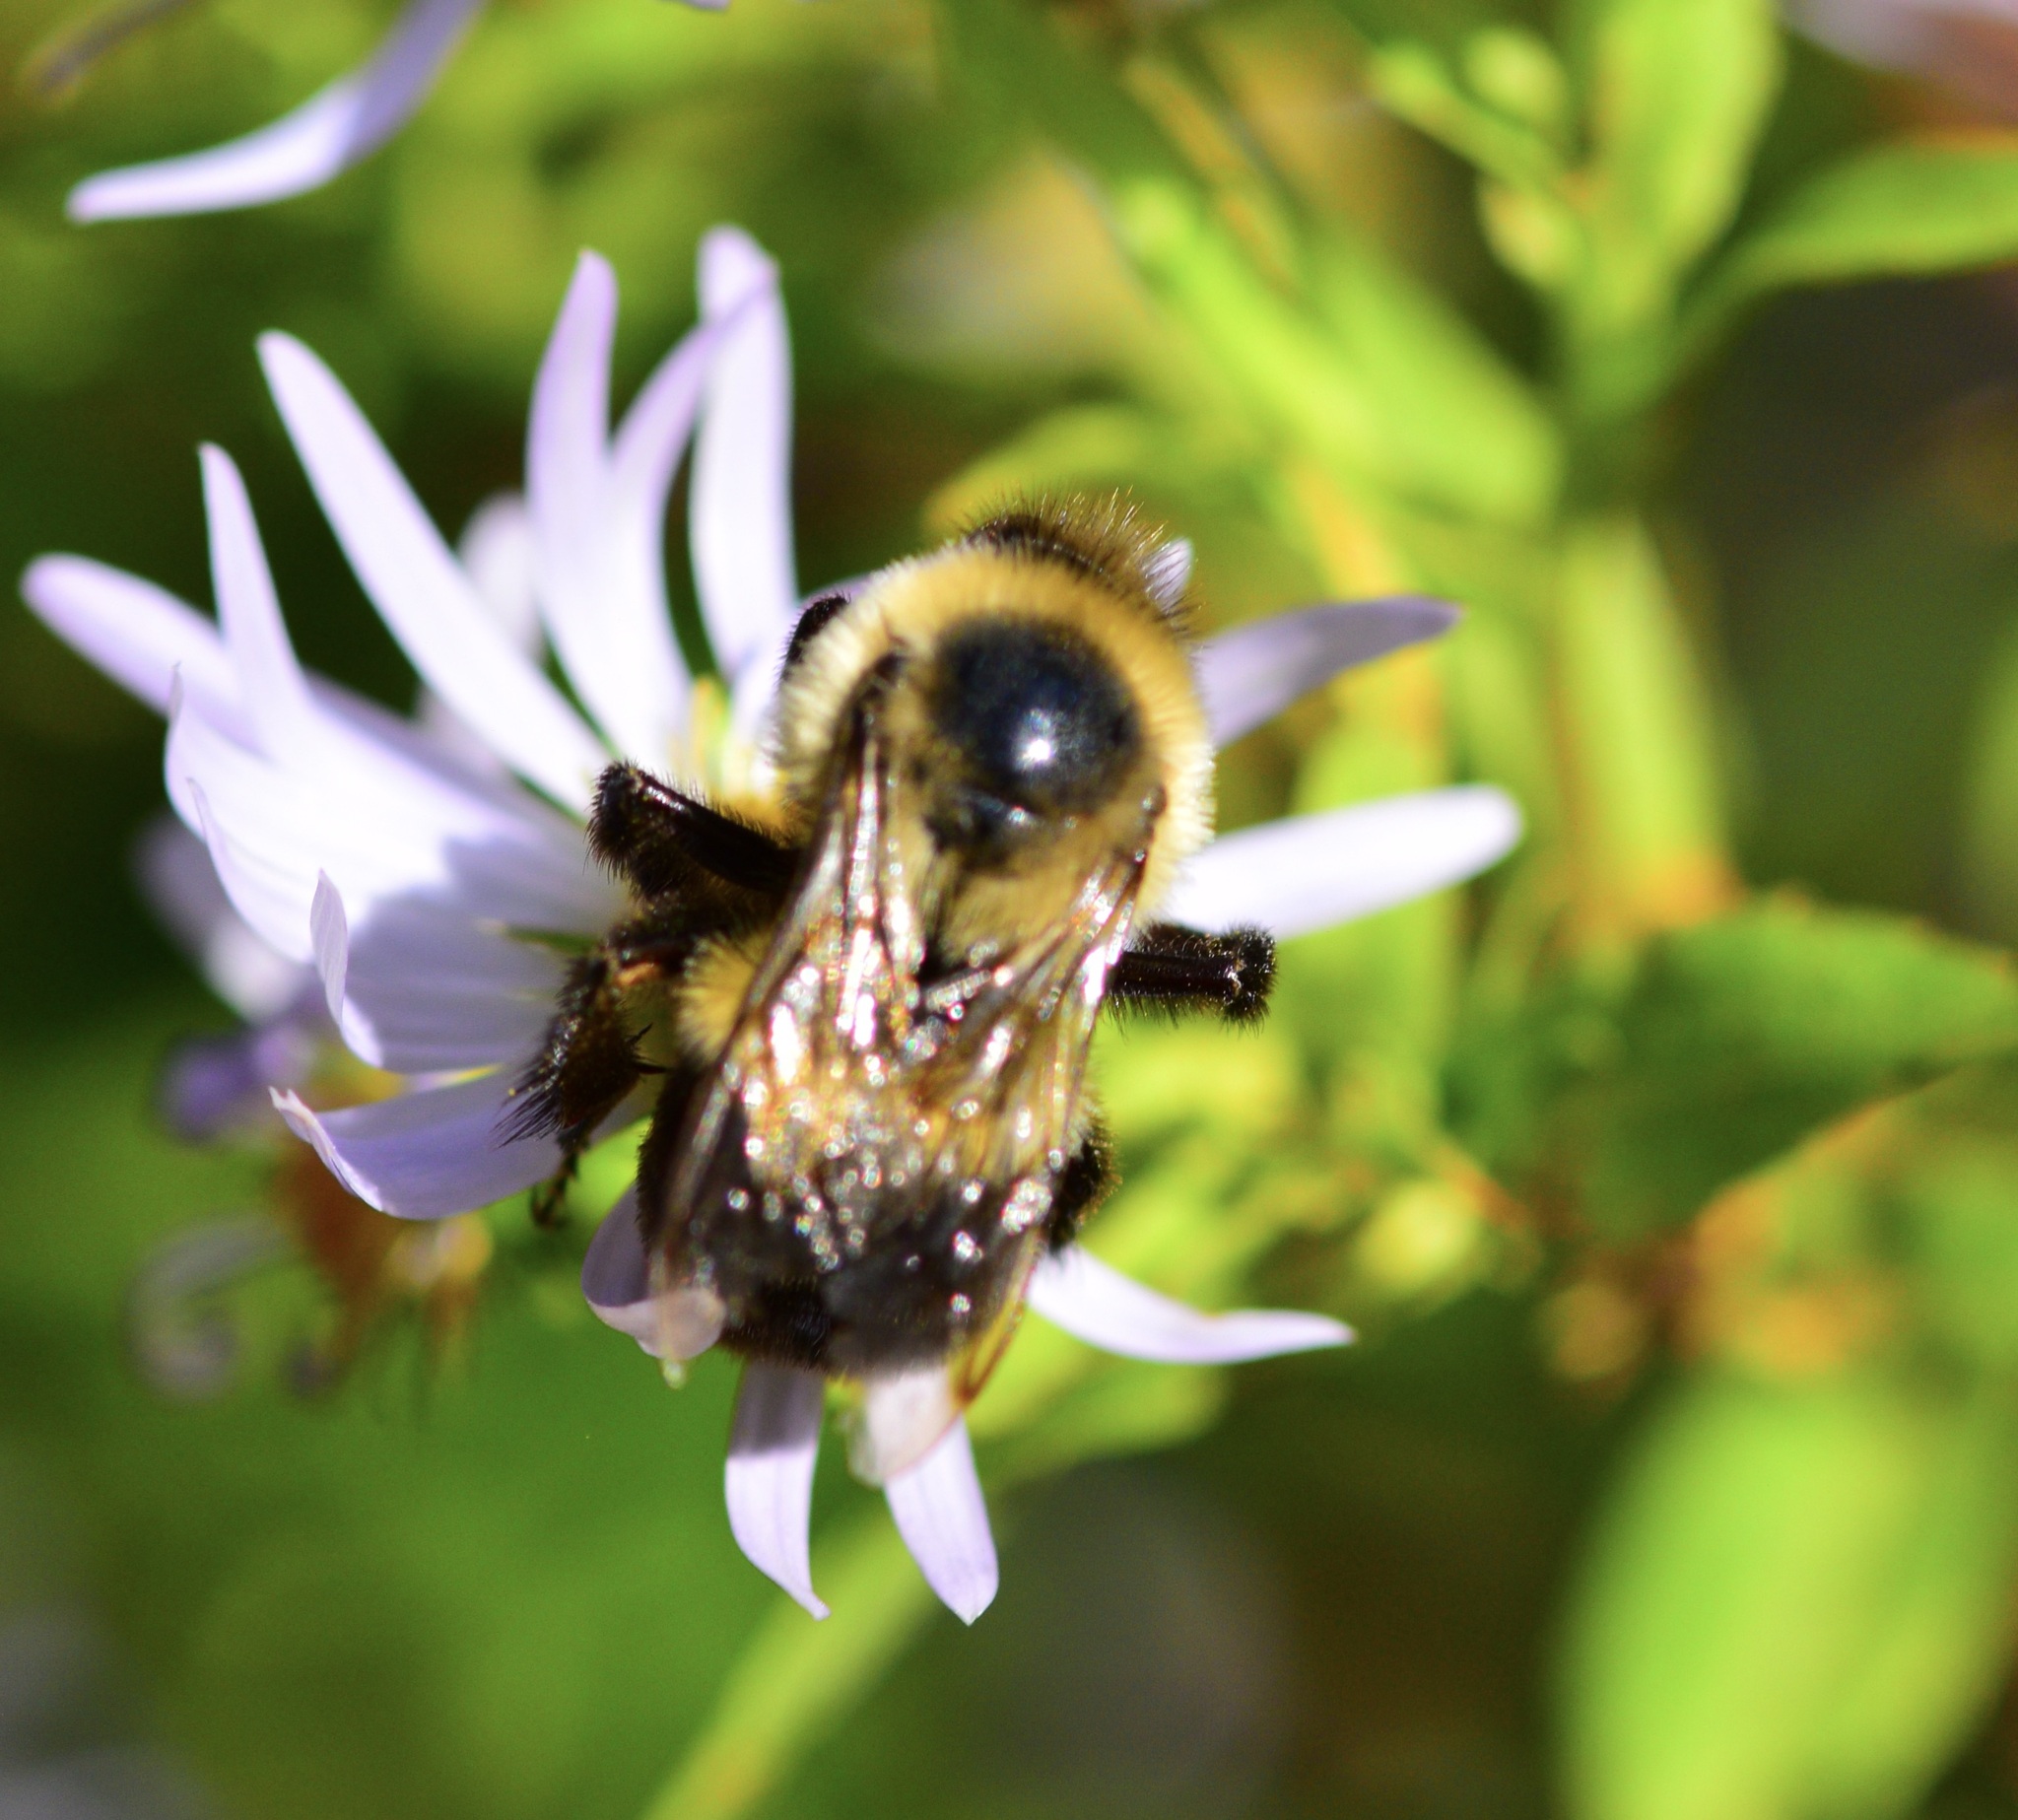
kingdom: Animalia
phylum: Arthropoda
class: Insecta
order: Hymenoptera
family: Apidae
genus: Bombus
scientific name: Bombus impatiens
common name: Common eastern bumble bee
